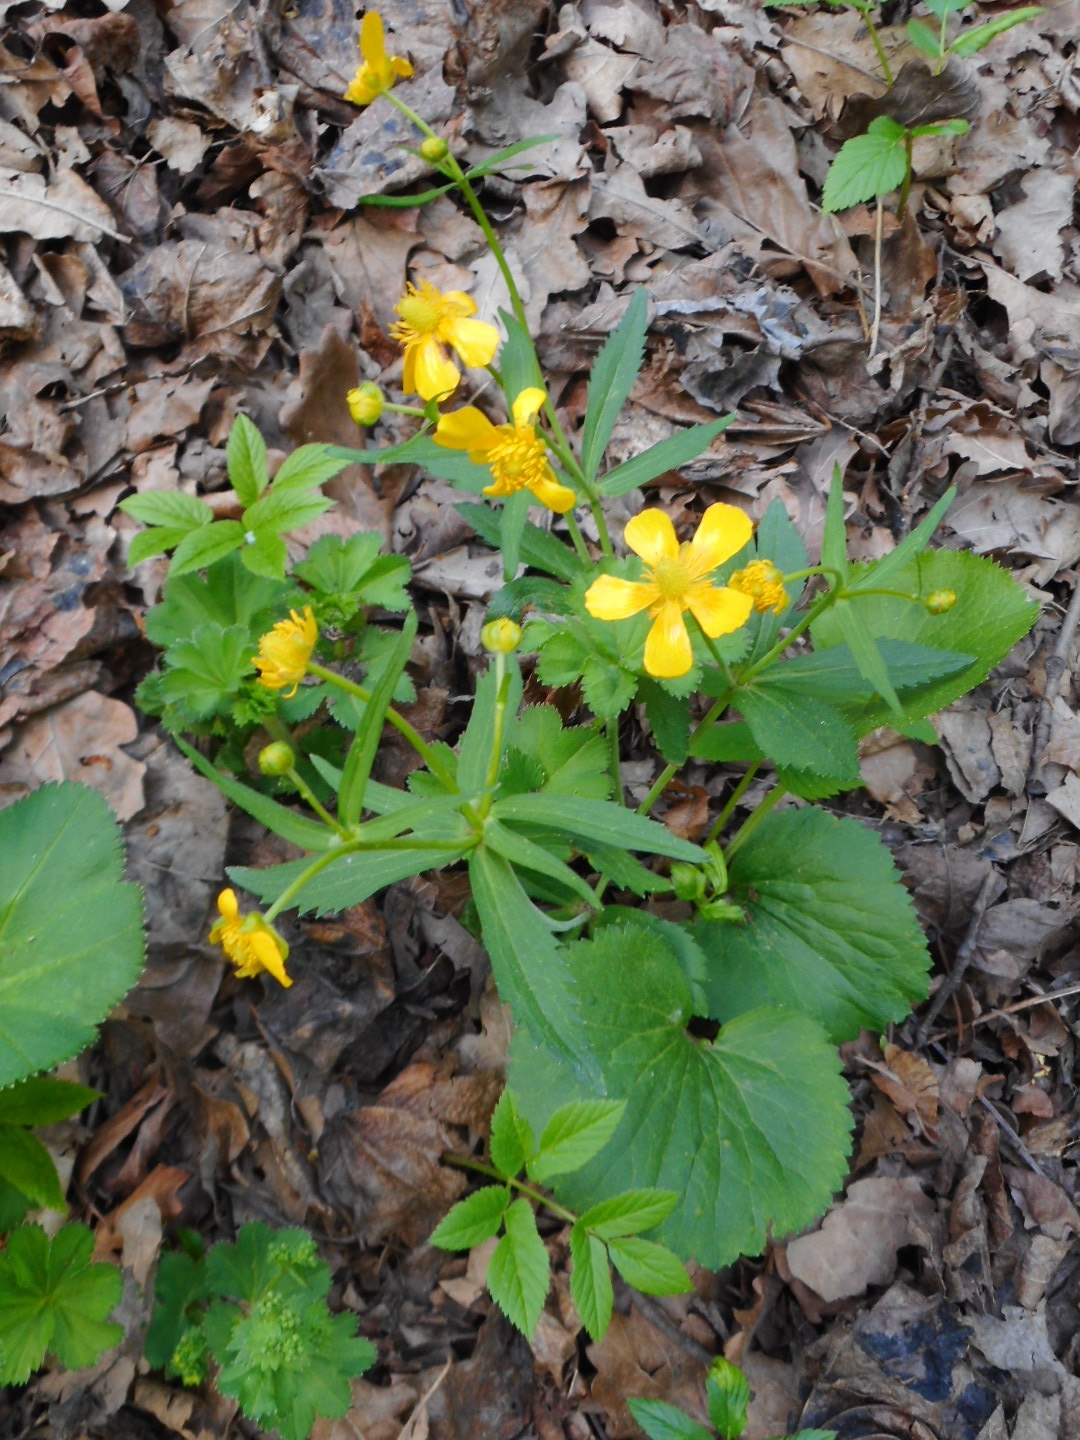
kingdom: Plantae
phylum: Tracheophyta
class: Magnoliopsida
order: Ranunculales
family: Ranunculaceae
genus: Ranunculus
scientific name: Ranunculus cassubicus
